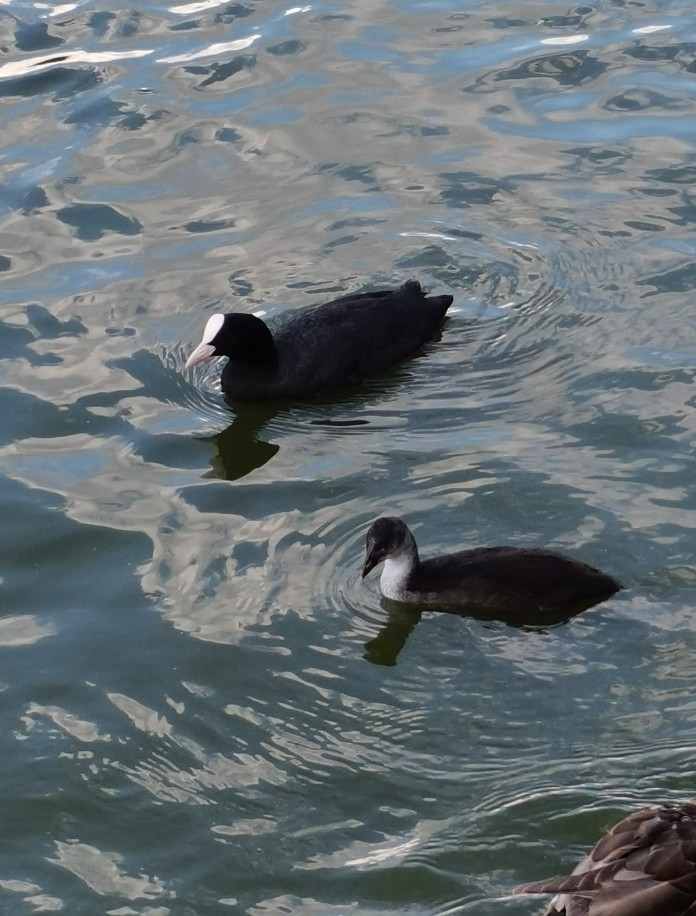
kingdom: Animalia
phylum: Chordata
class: Aves
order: Gruiformes
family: Rallidae
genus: Fulica
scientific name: Fulica atra
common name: Eurasian coot
